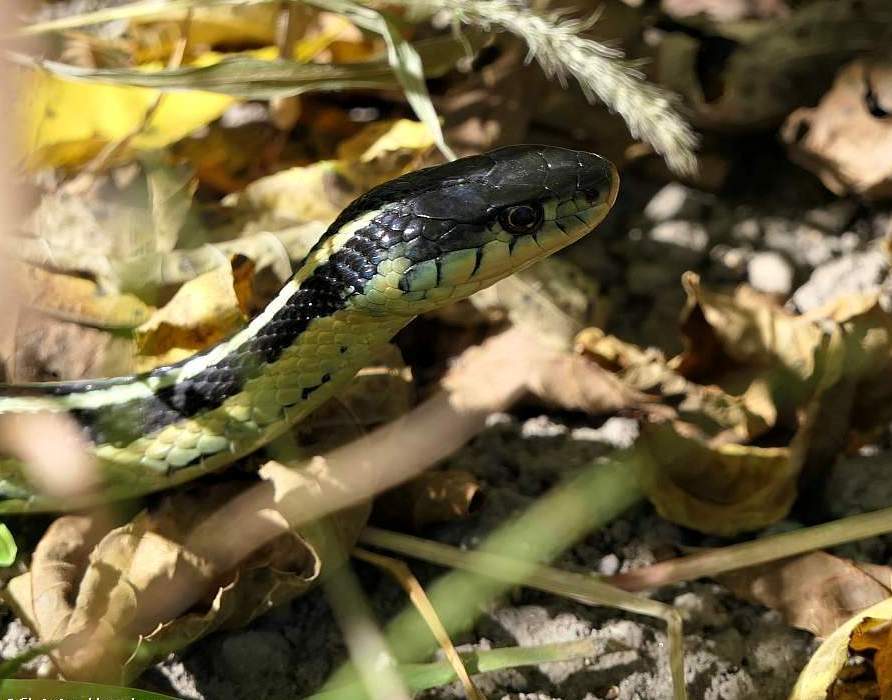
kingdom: Animalia
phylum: Chordata
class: Squamata
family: Colubridae
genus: Thamnophis
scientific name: Thamnophis sirtalis
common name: Common garter snake
